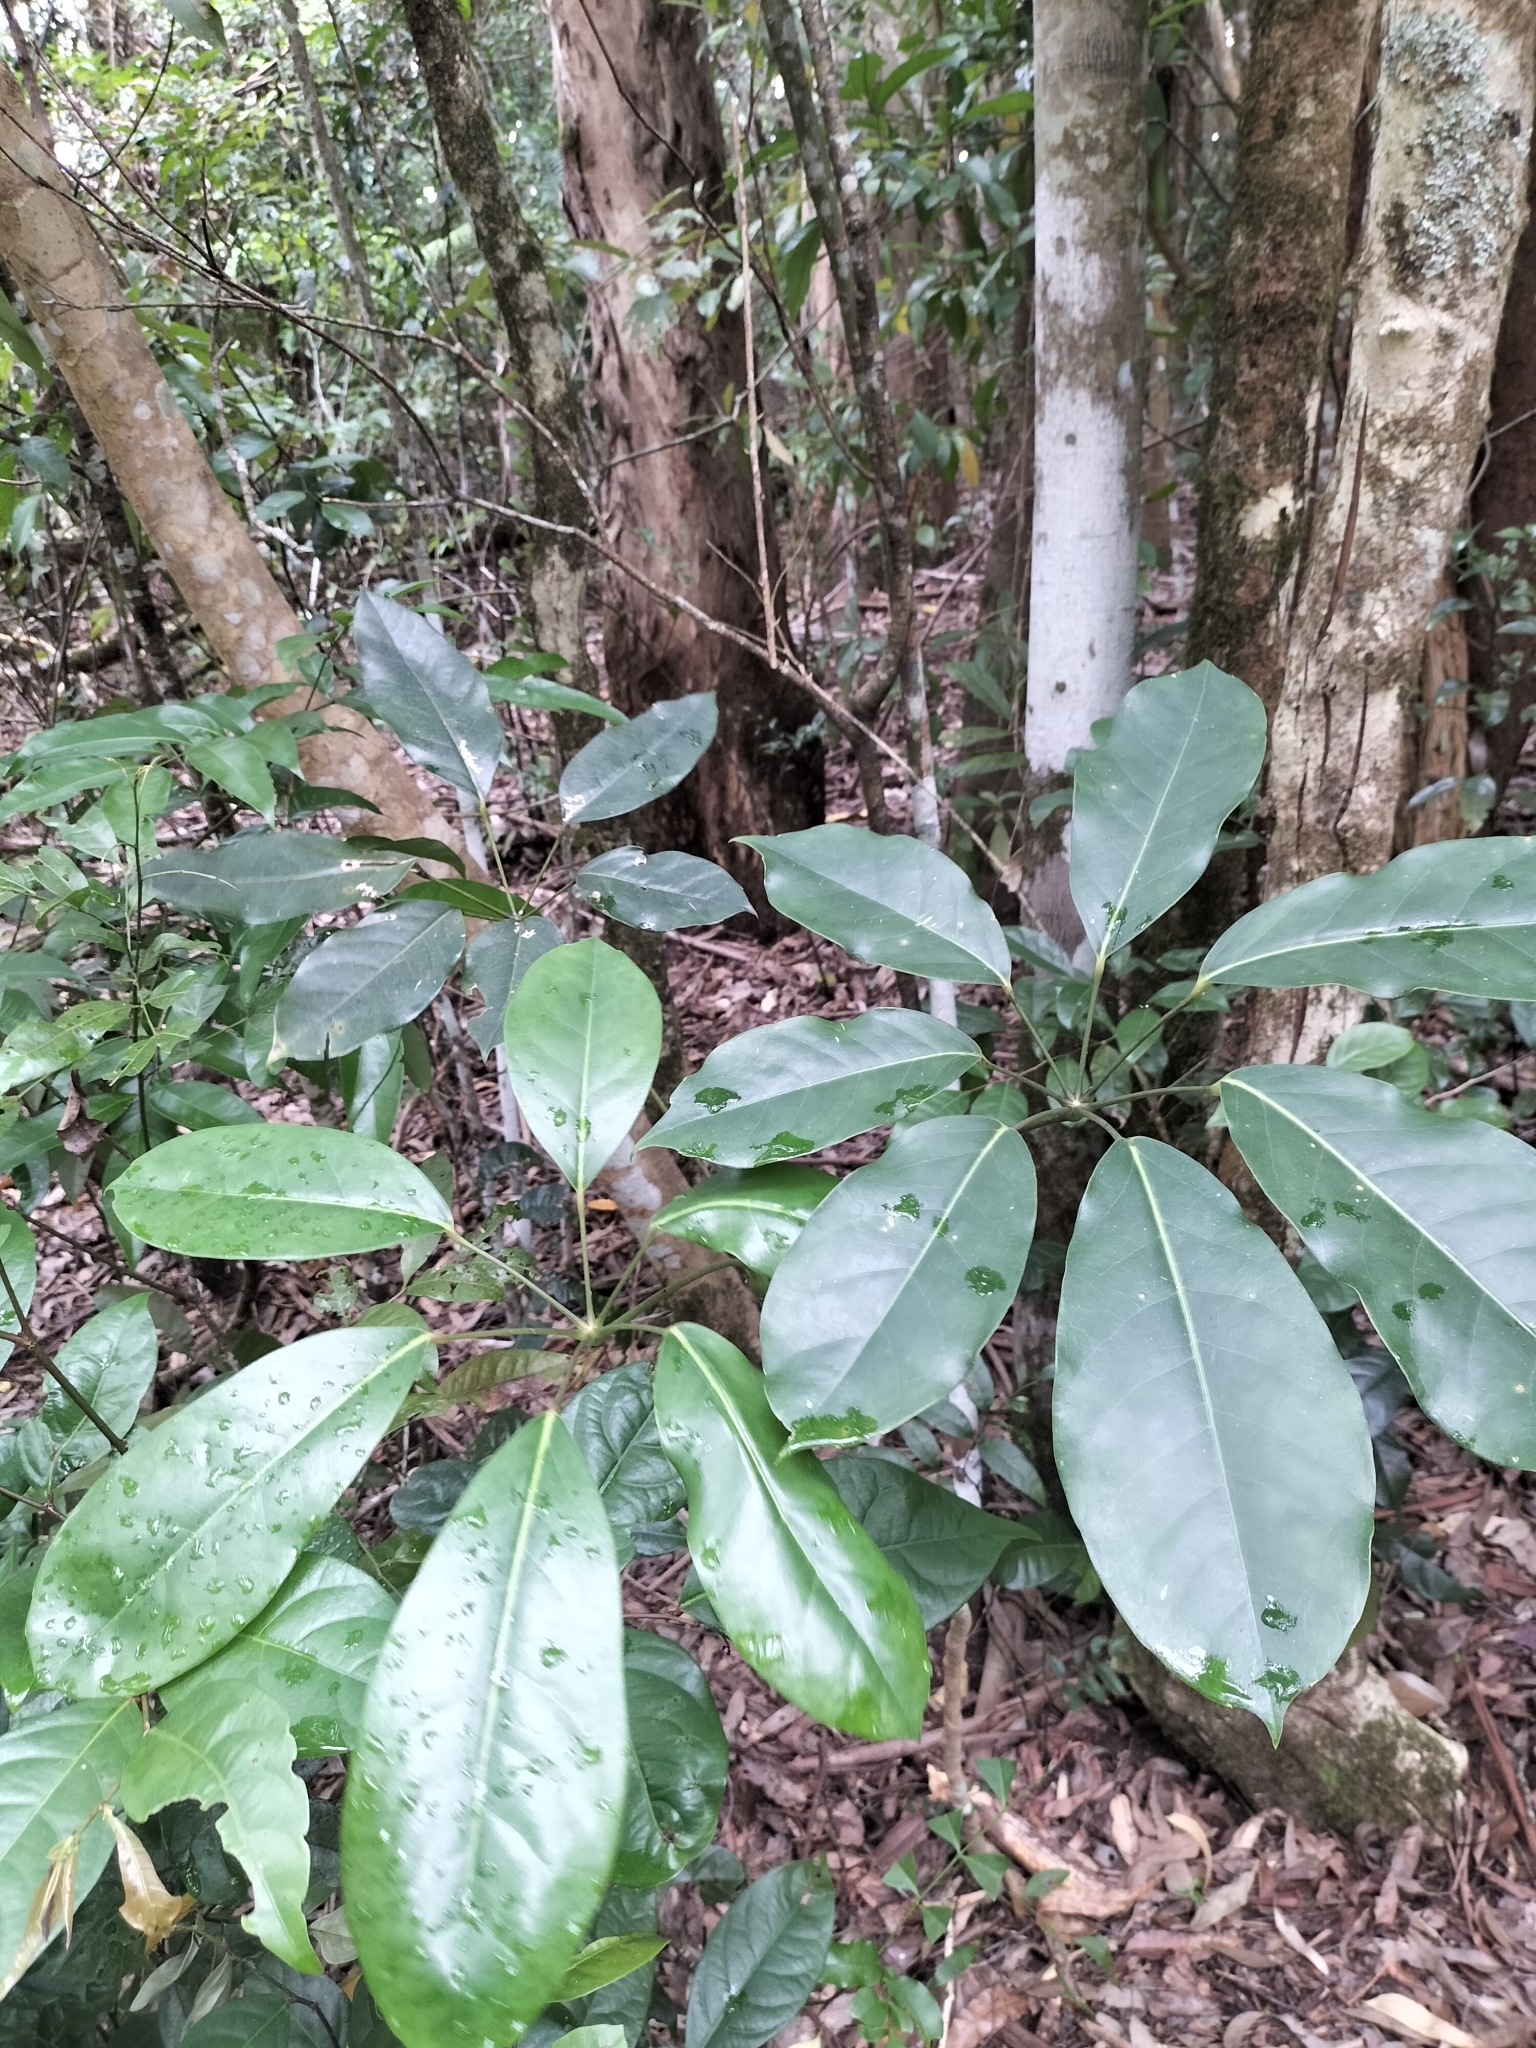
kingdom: Plantae
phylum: Tracheophyta
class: Magnoliopsida
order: Apiales
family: Araliaceae
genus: Heptapleurum
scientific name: Heptapleurum actinophyllum
